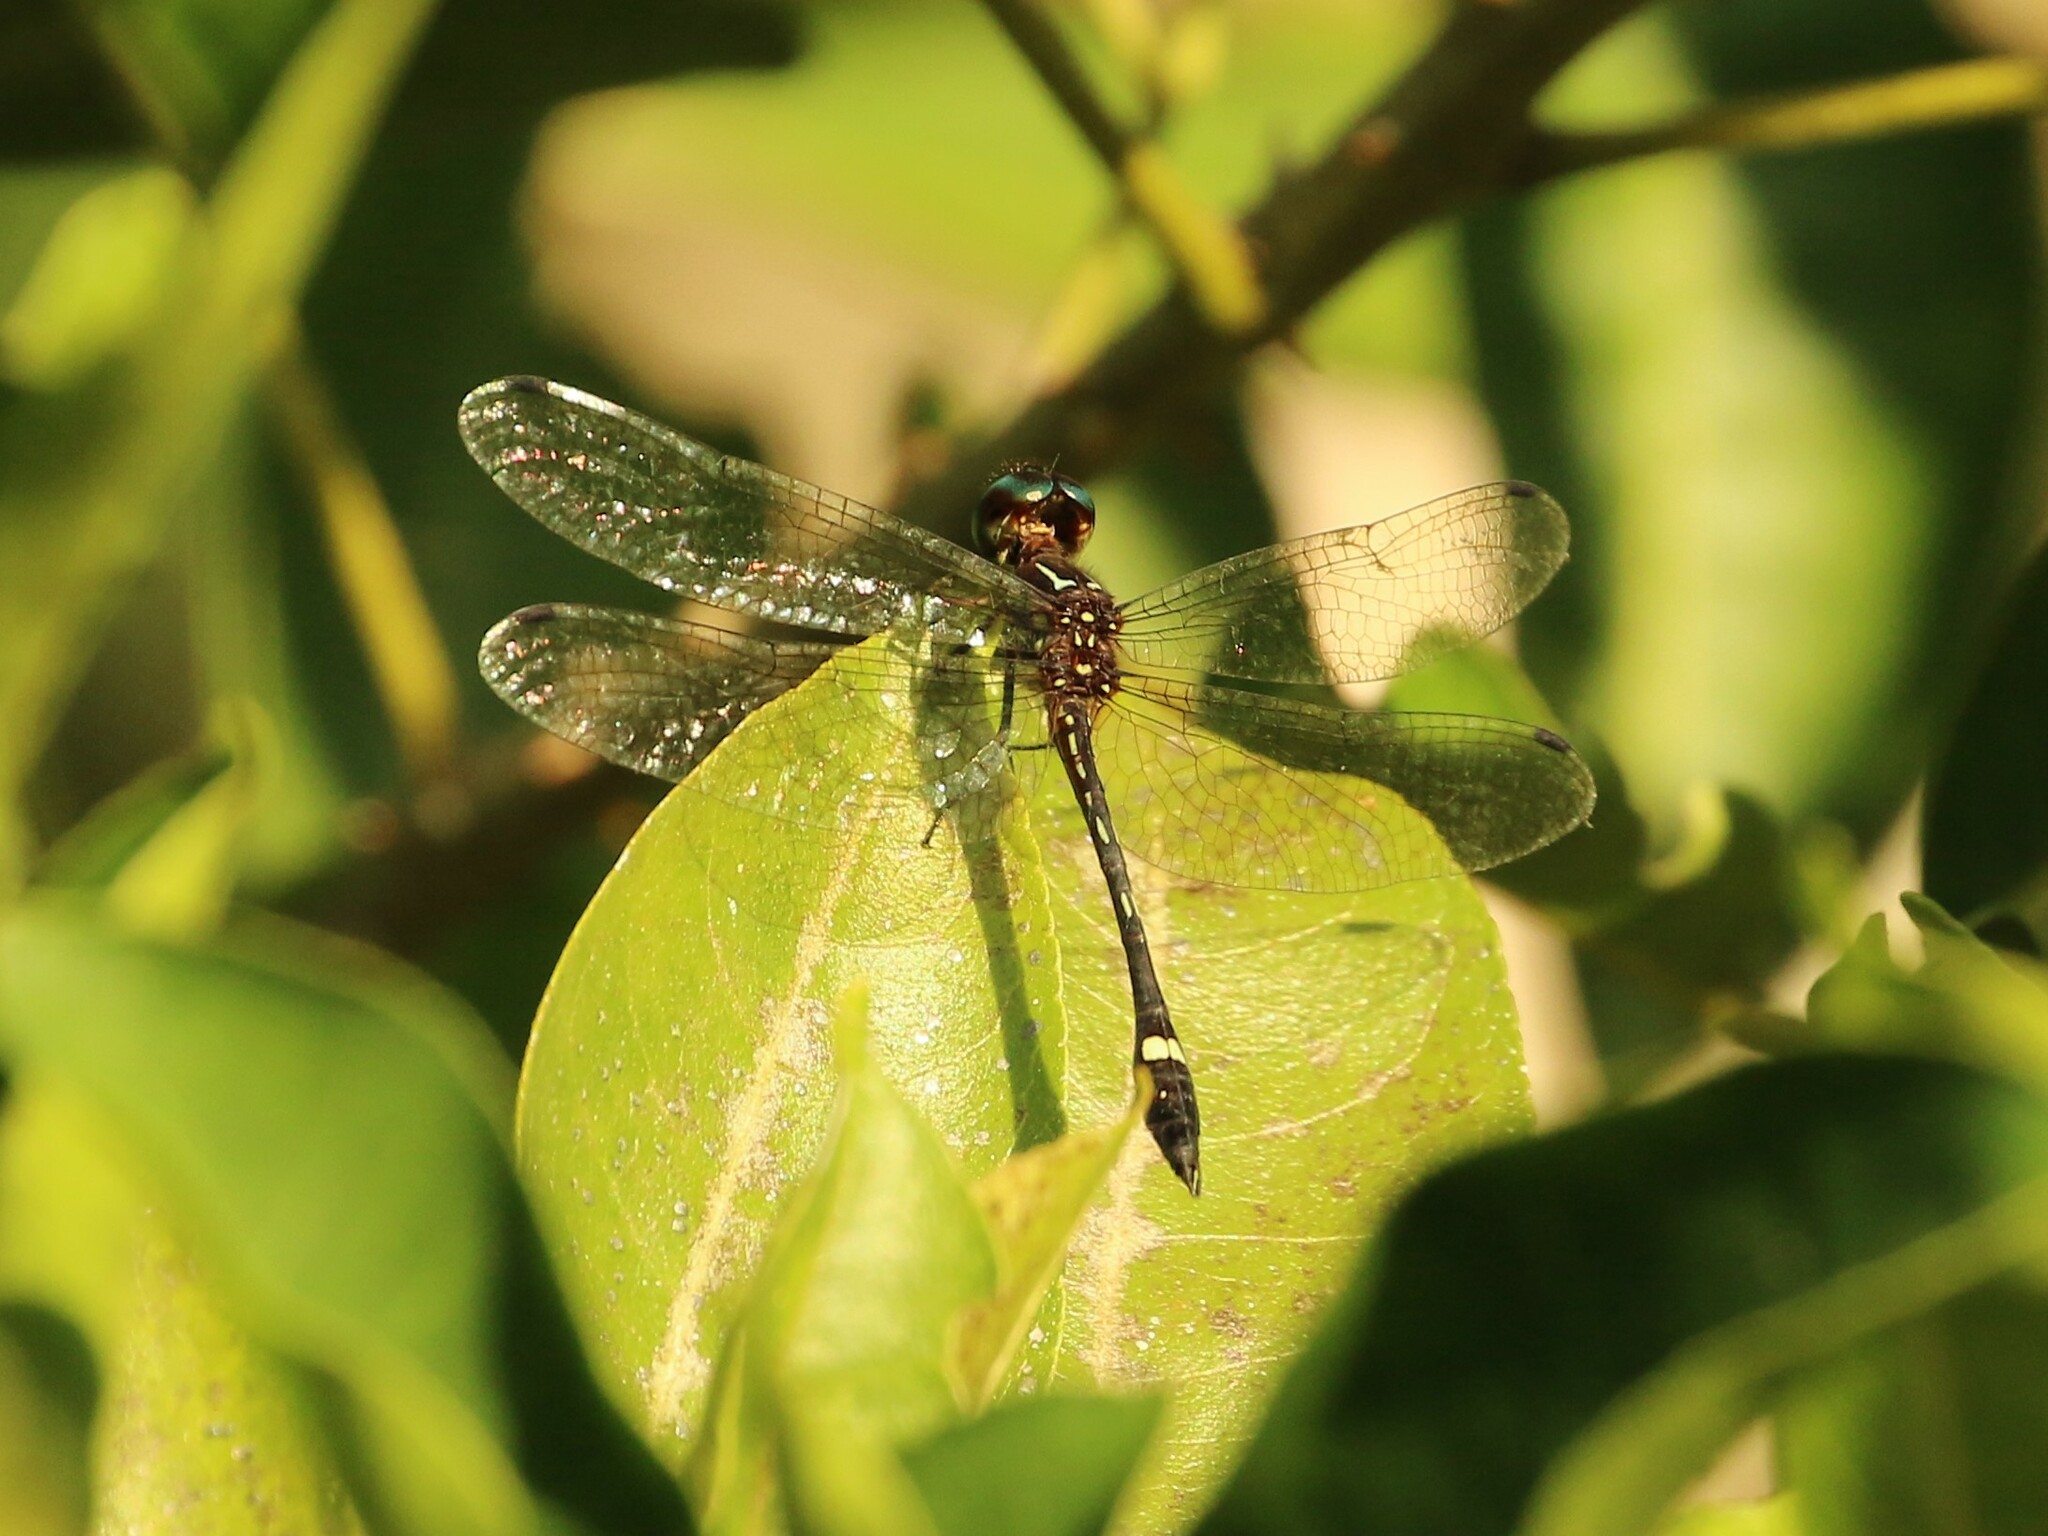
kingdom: Animalia
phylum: Arthropoda
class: Insecta
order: Odonata
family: Libellulidae
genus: Macrothemis
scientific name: Macrothemis inequiunguis
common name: Jade-striped sylph
